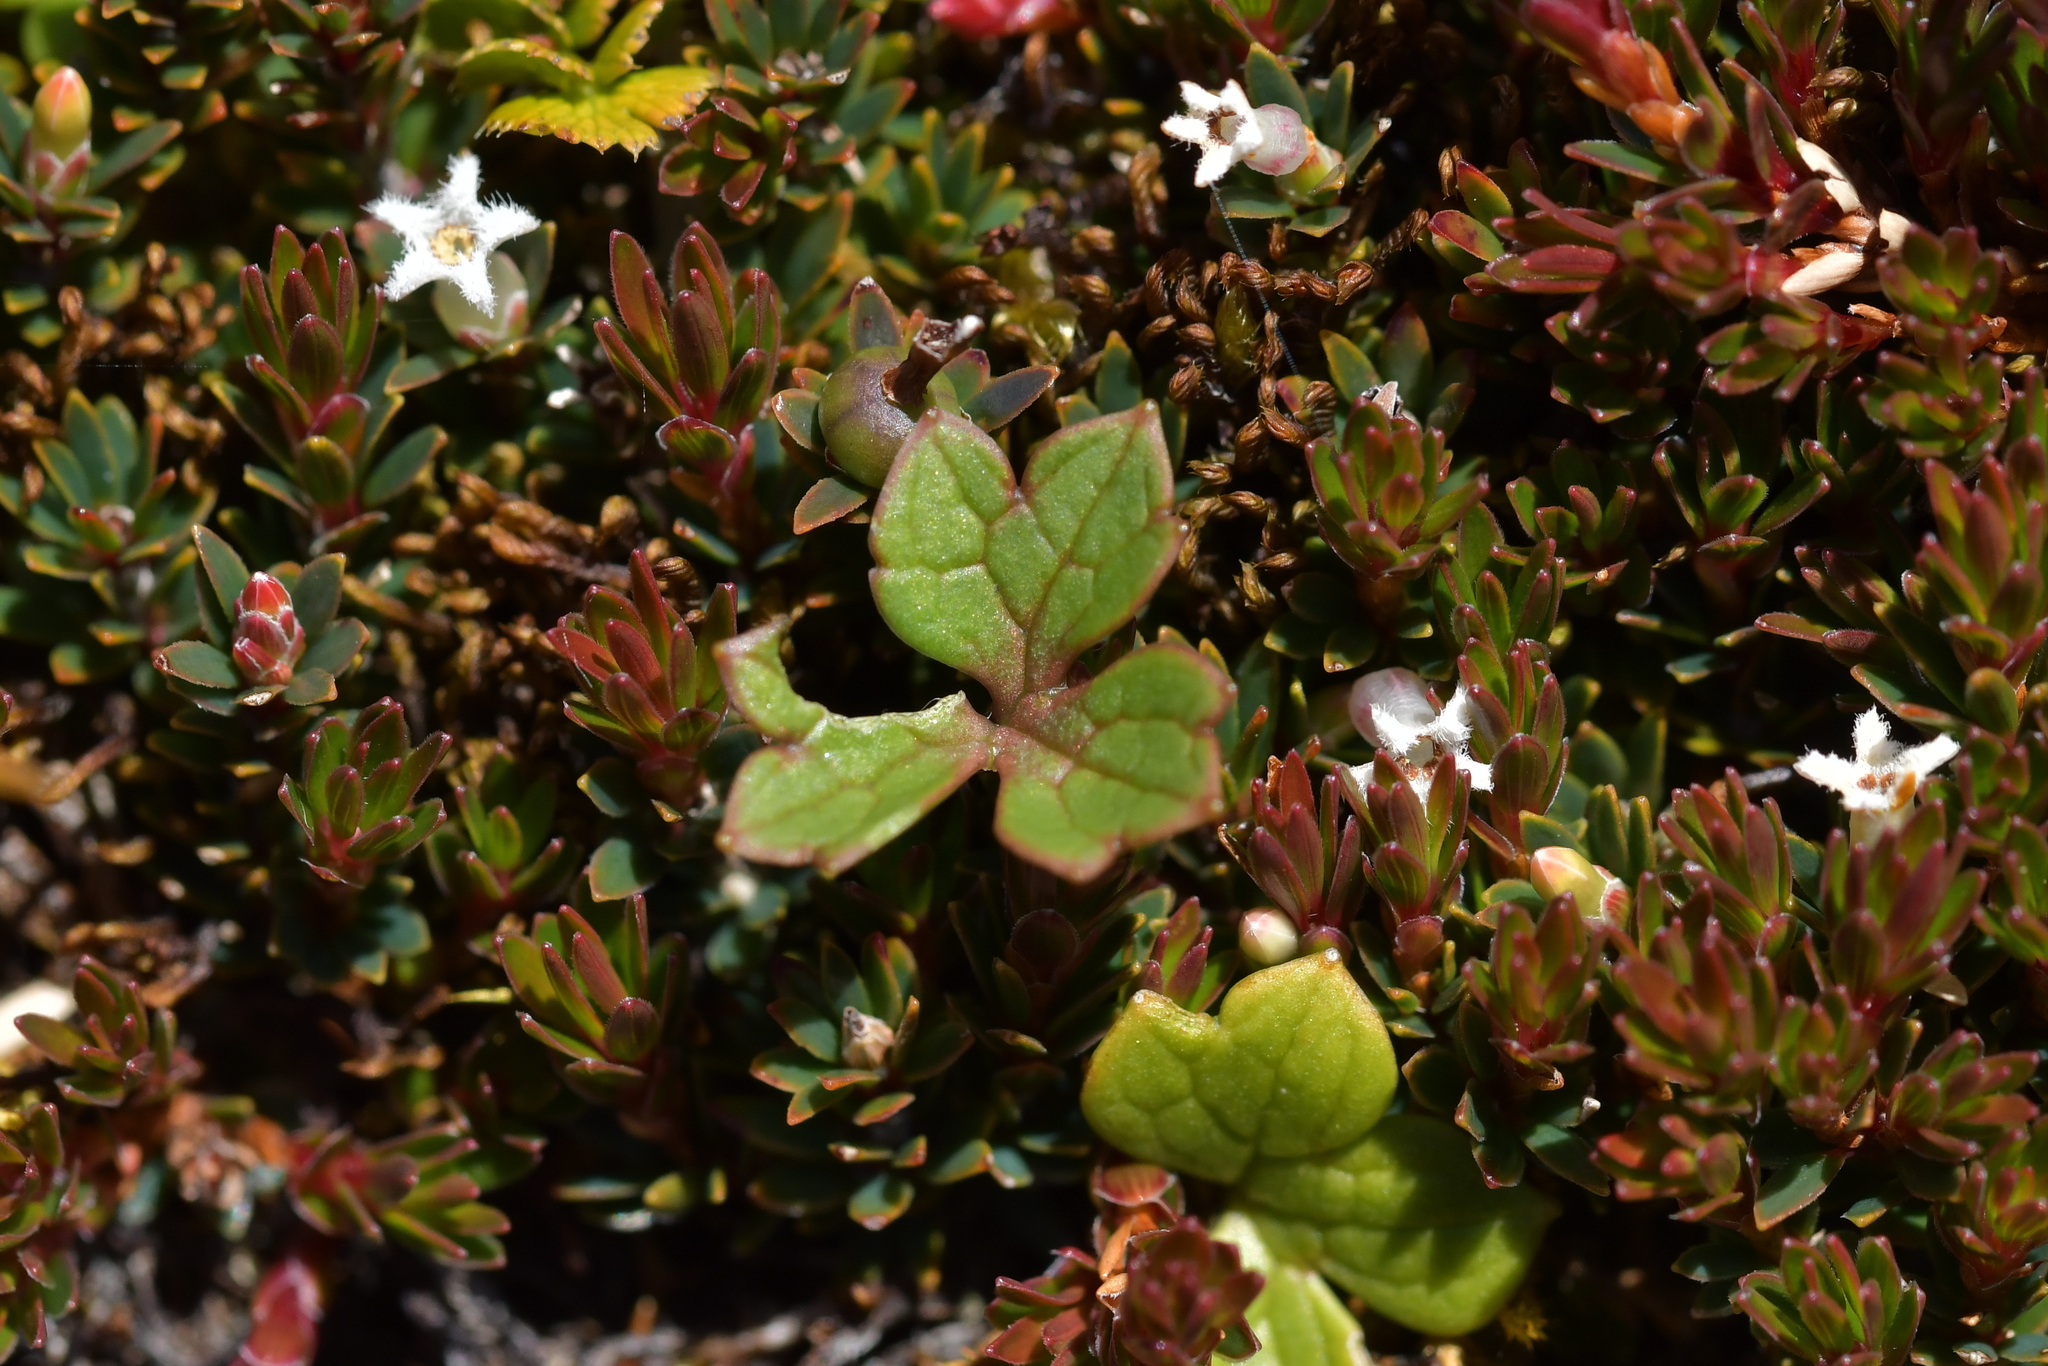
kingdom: Plantae
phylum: Tracheophyta
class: Magnoliopsida
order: Ranunculales
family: Ranunculaceae
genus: Ranunculus
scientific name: Ranunculus verticillatus
